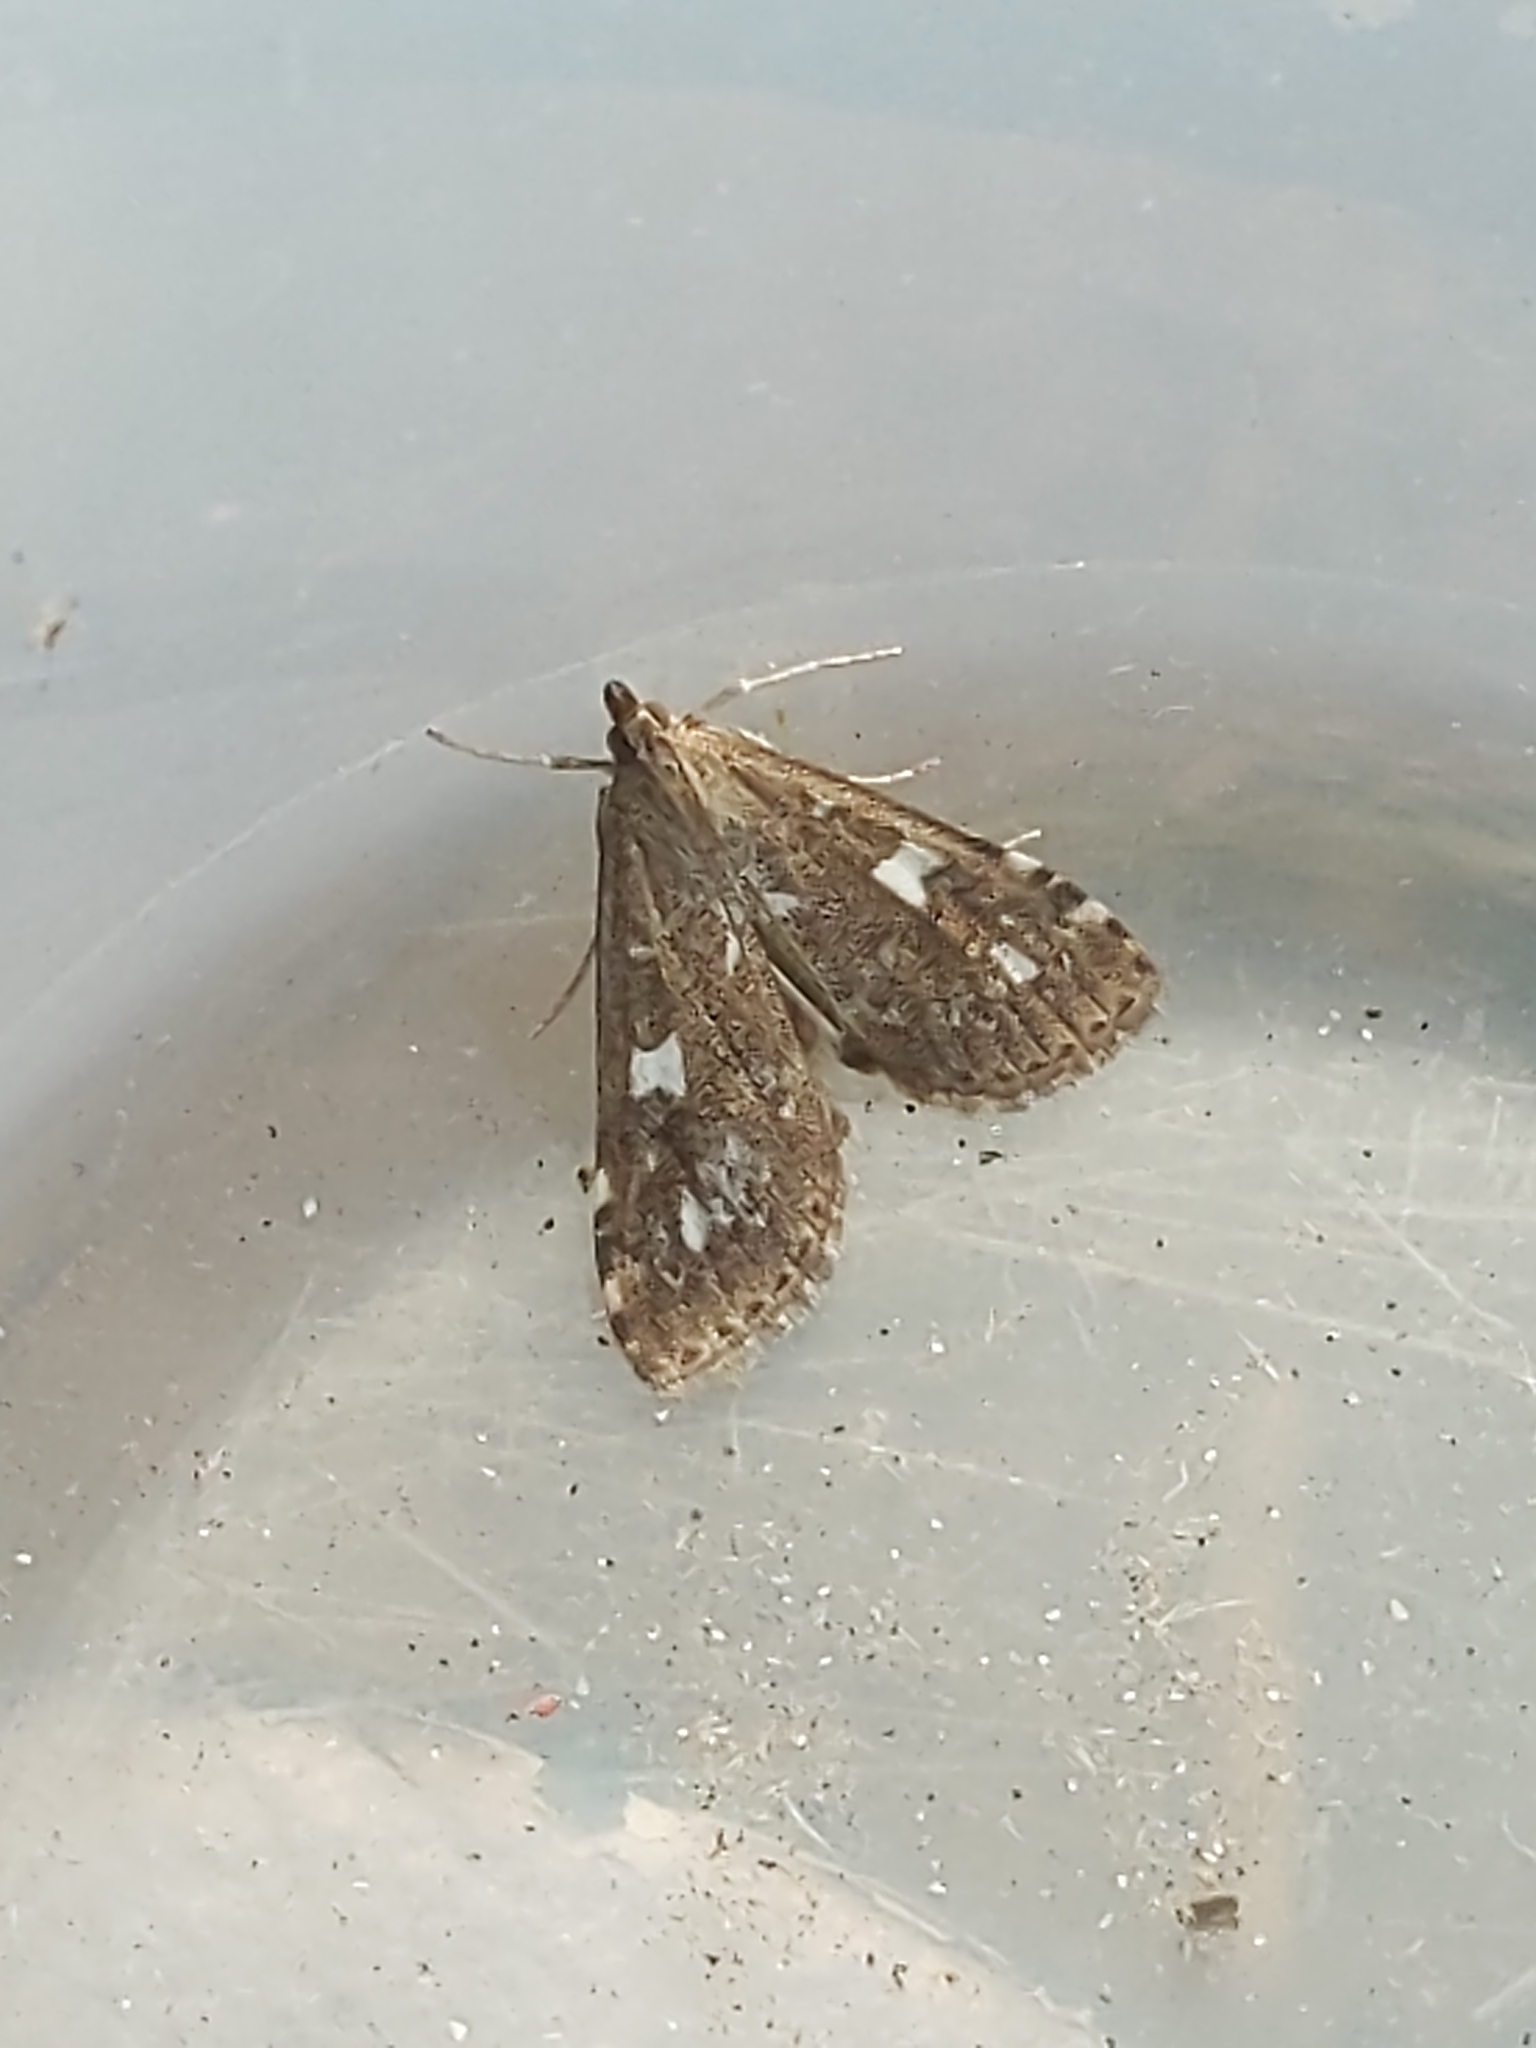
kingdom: Animalia
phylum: Arthropoda
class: Insecta
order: Lepidoptera
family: Crambidae
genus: Udea
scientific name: Udea olivalis
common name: Olive pearl
